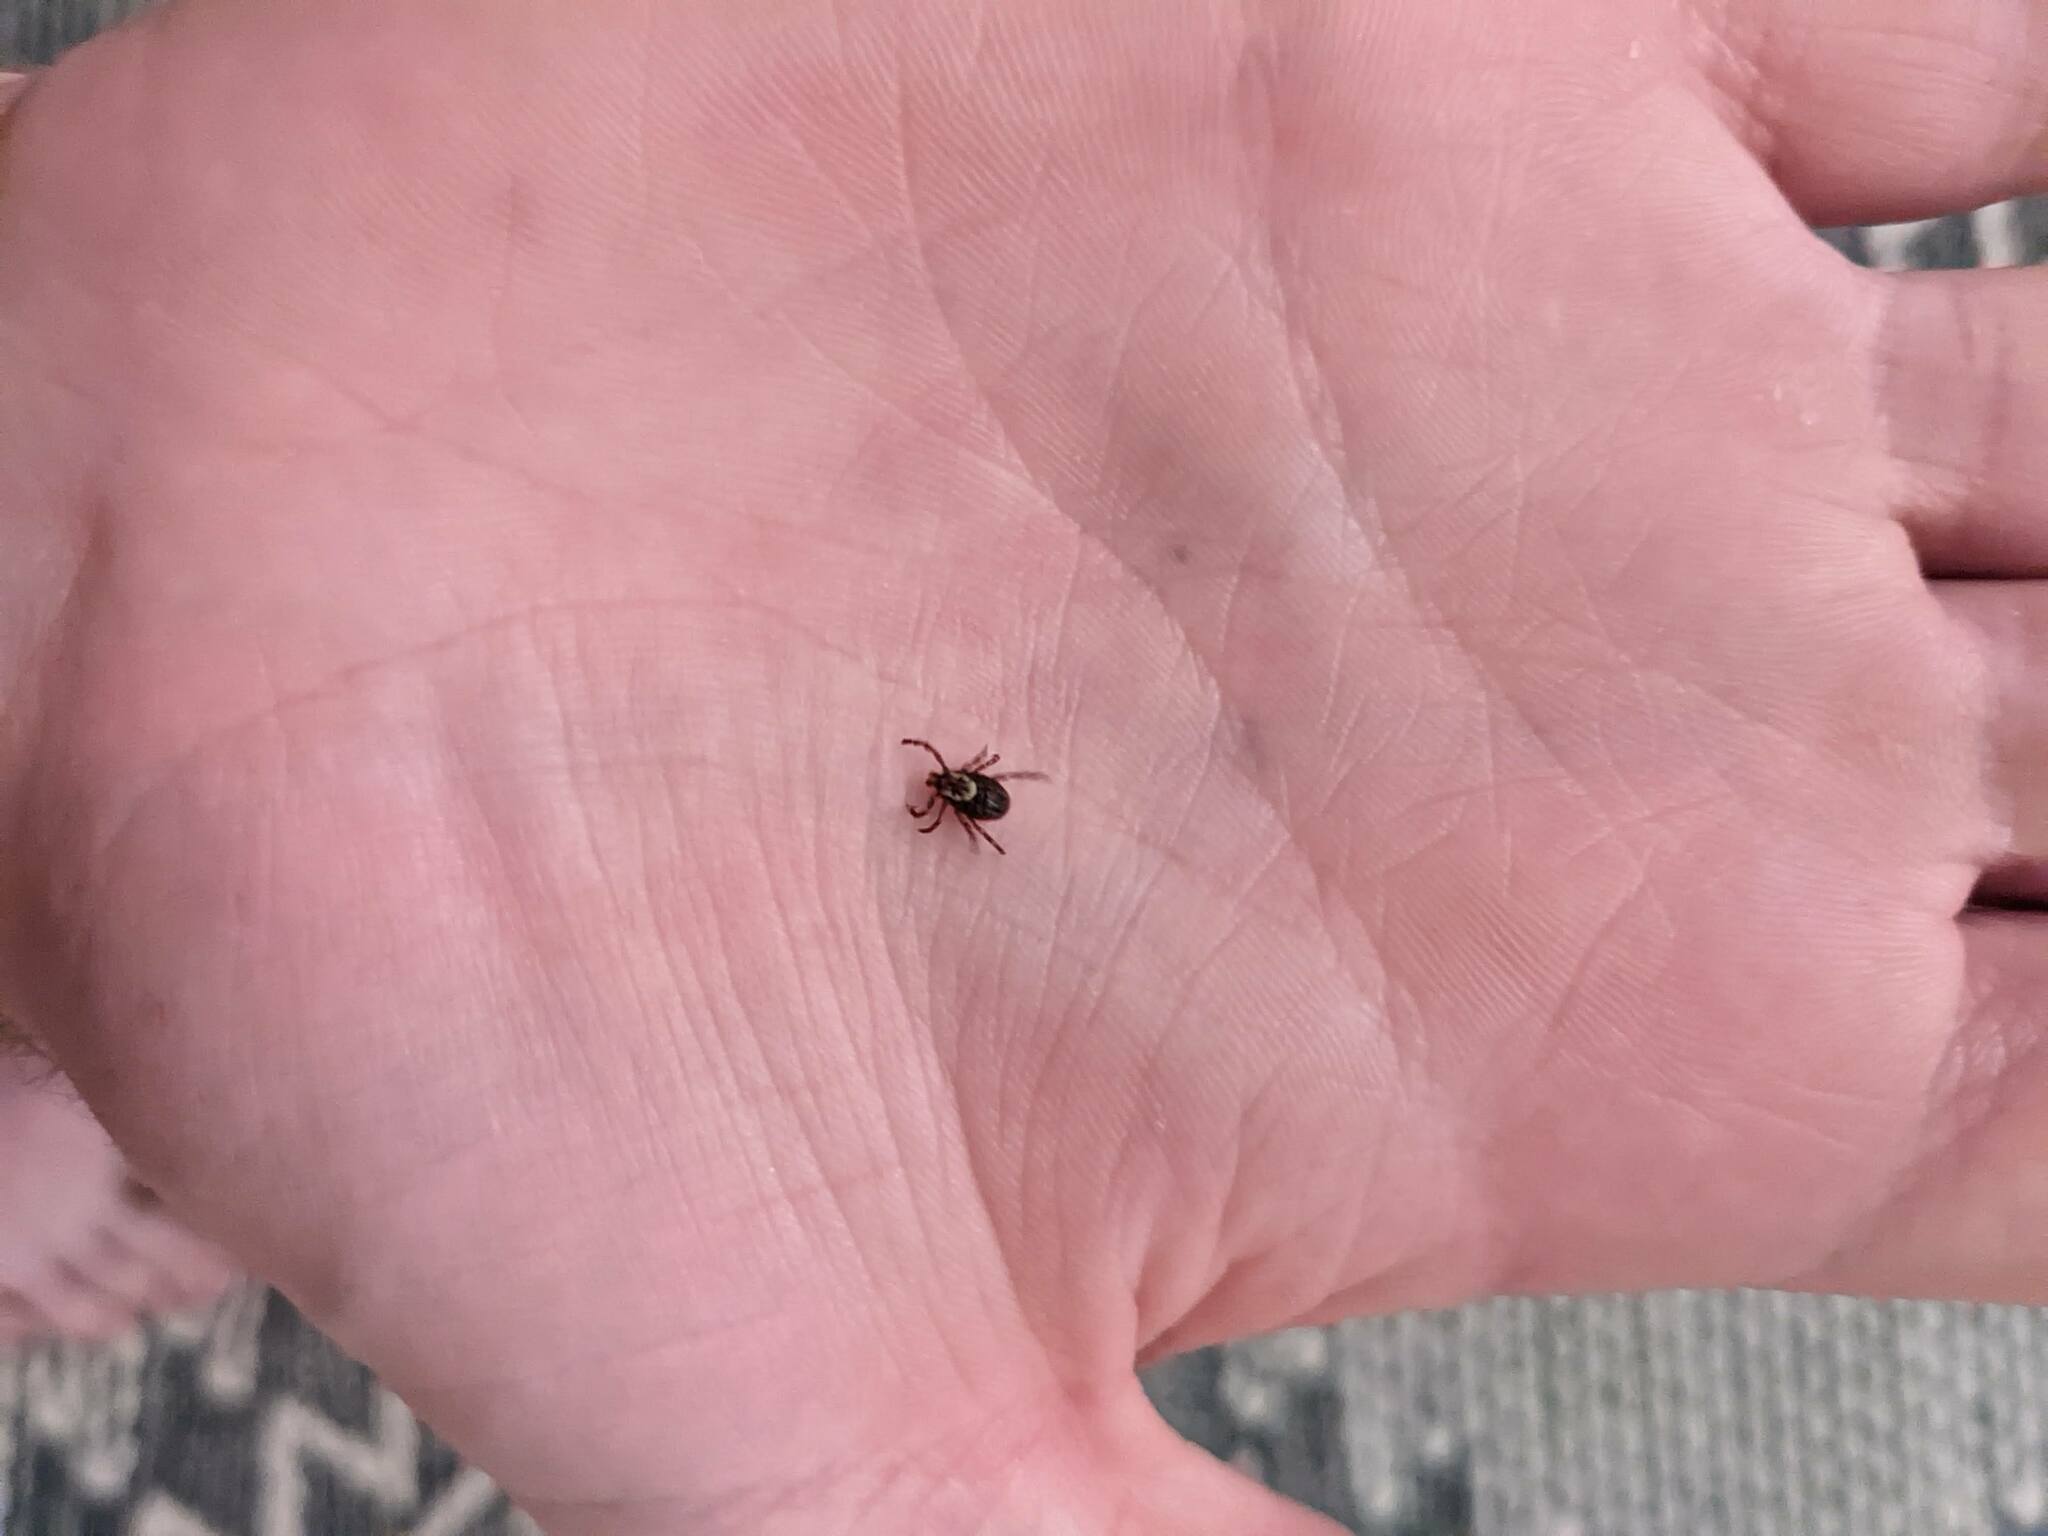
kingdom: Animalia
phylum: Arthropoda
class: Arachnida
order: Ixodida
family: Ixodidae
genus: Dermacentor
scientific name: Dermacentor variabilis
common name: American dog tick
